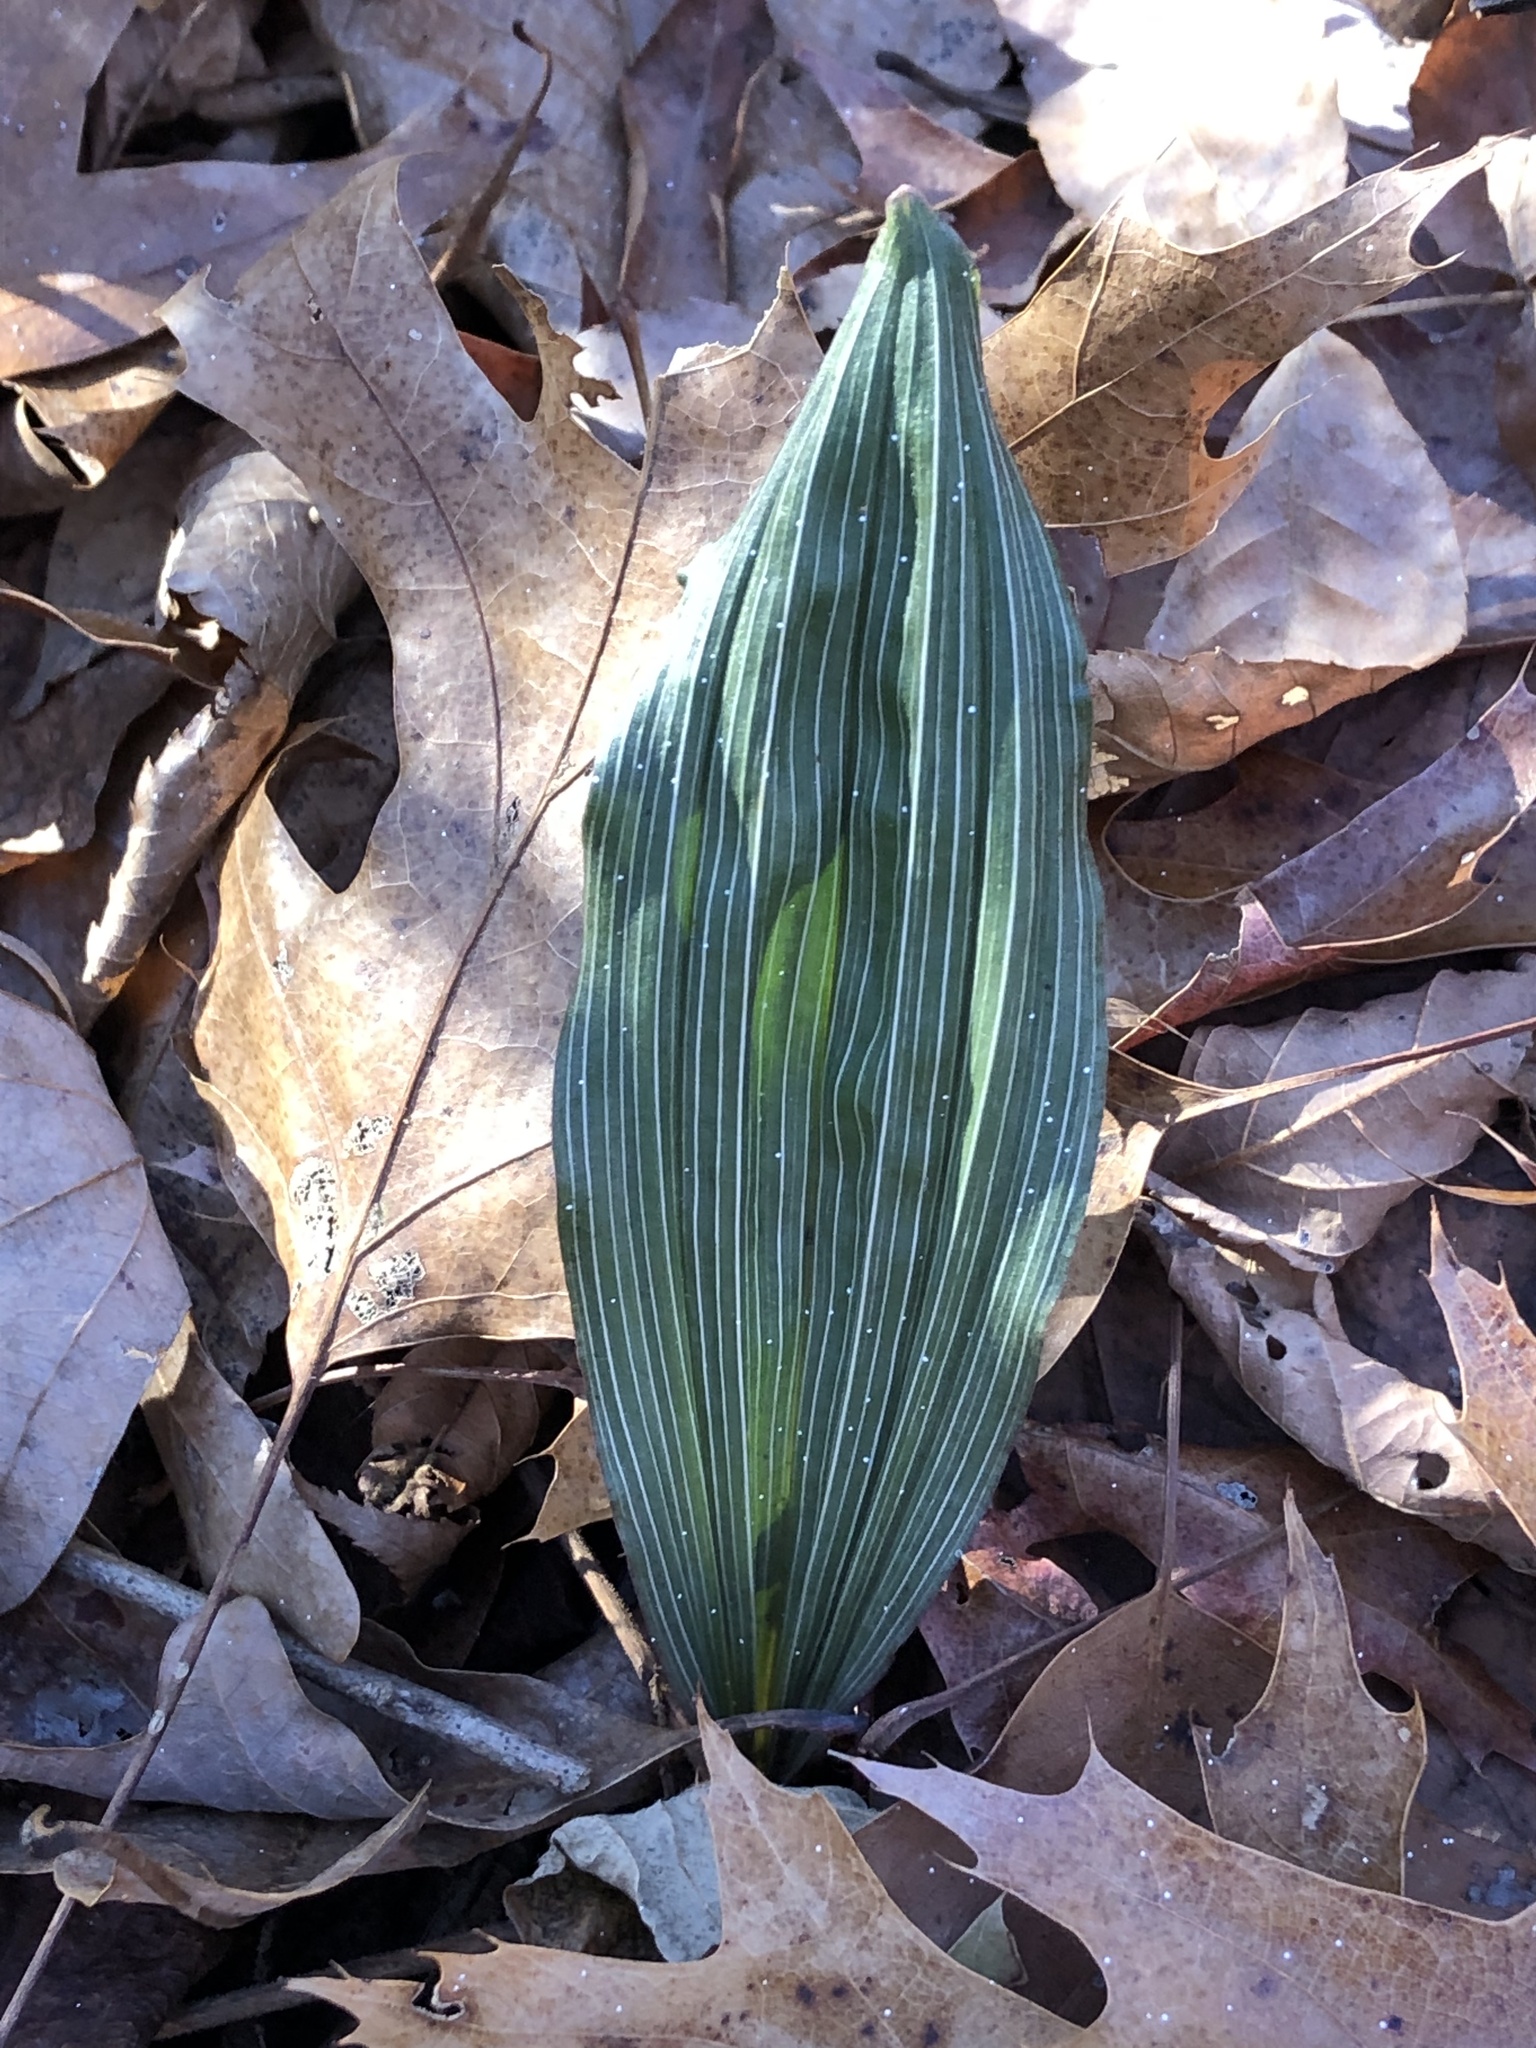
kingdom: Plantae
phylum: Tracheophyta
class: Liliopsida
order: Asparagales
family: Orchidaceae
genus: Aplectrum
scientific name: Aplectrum hyemale
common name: Adam-and-eve
